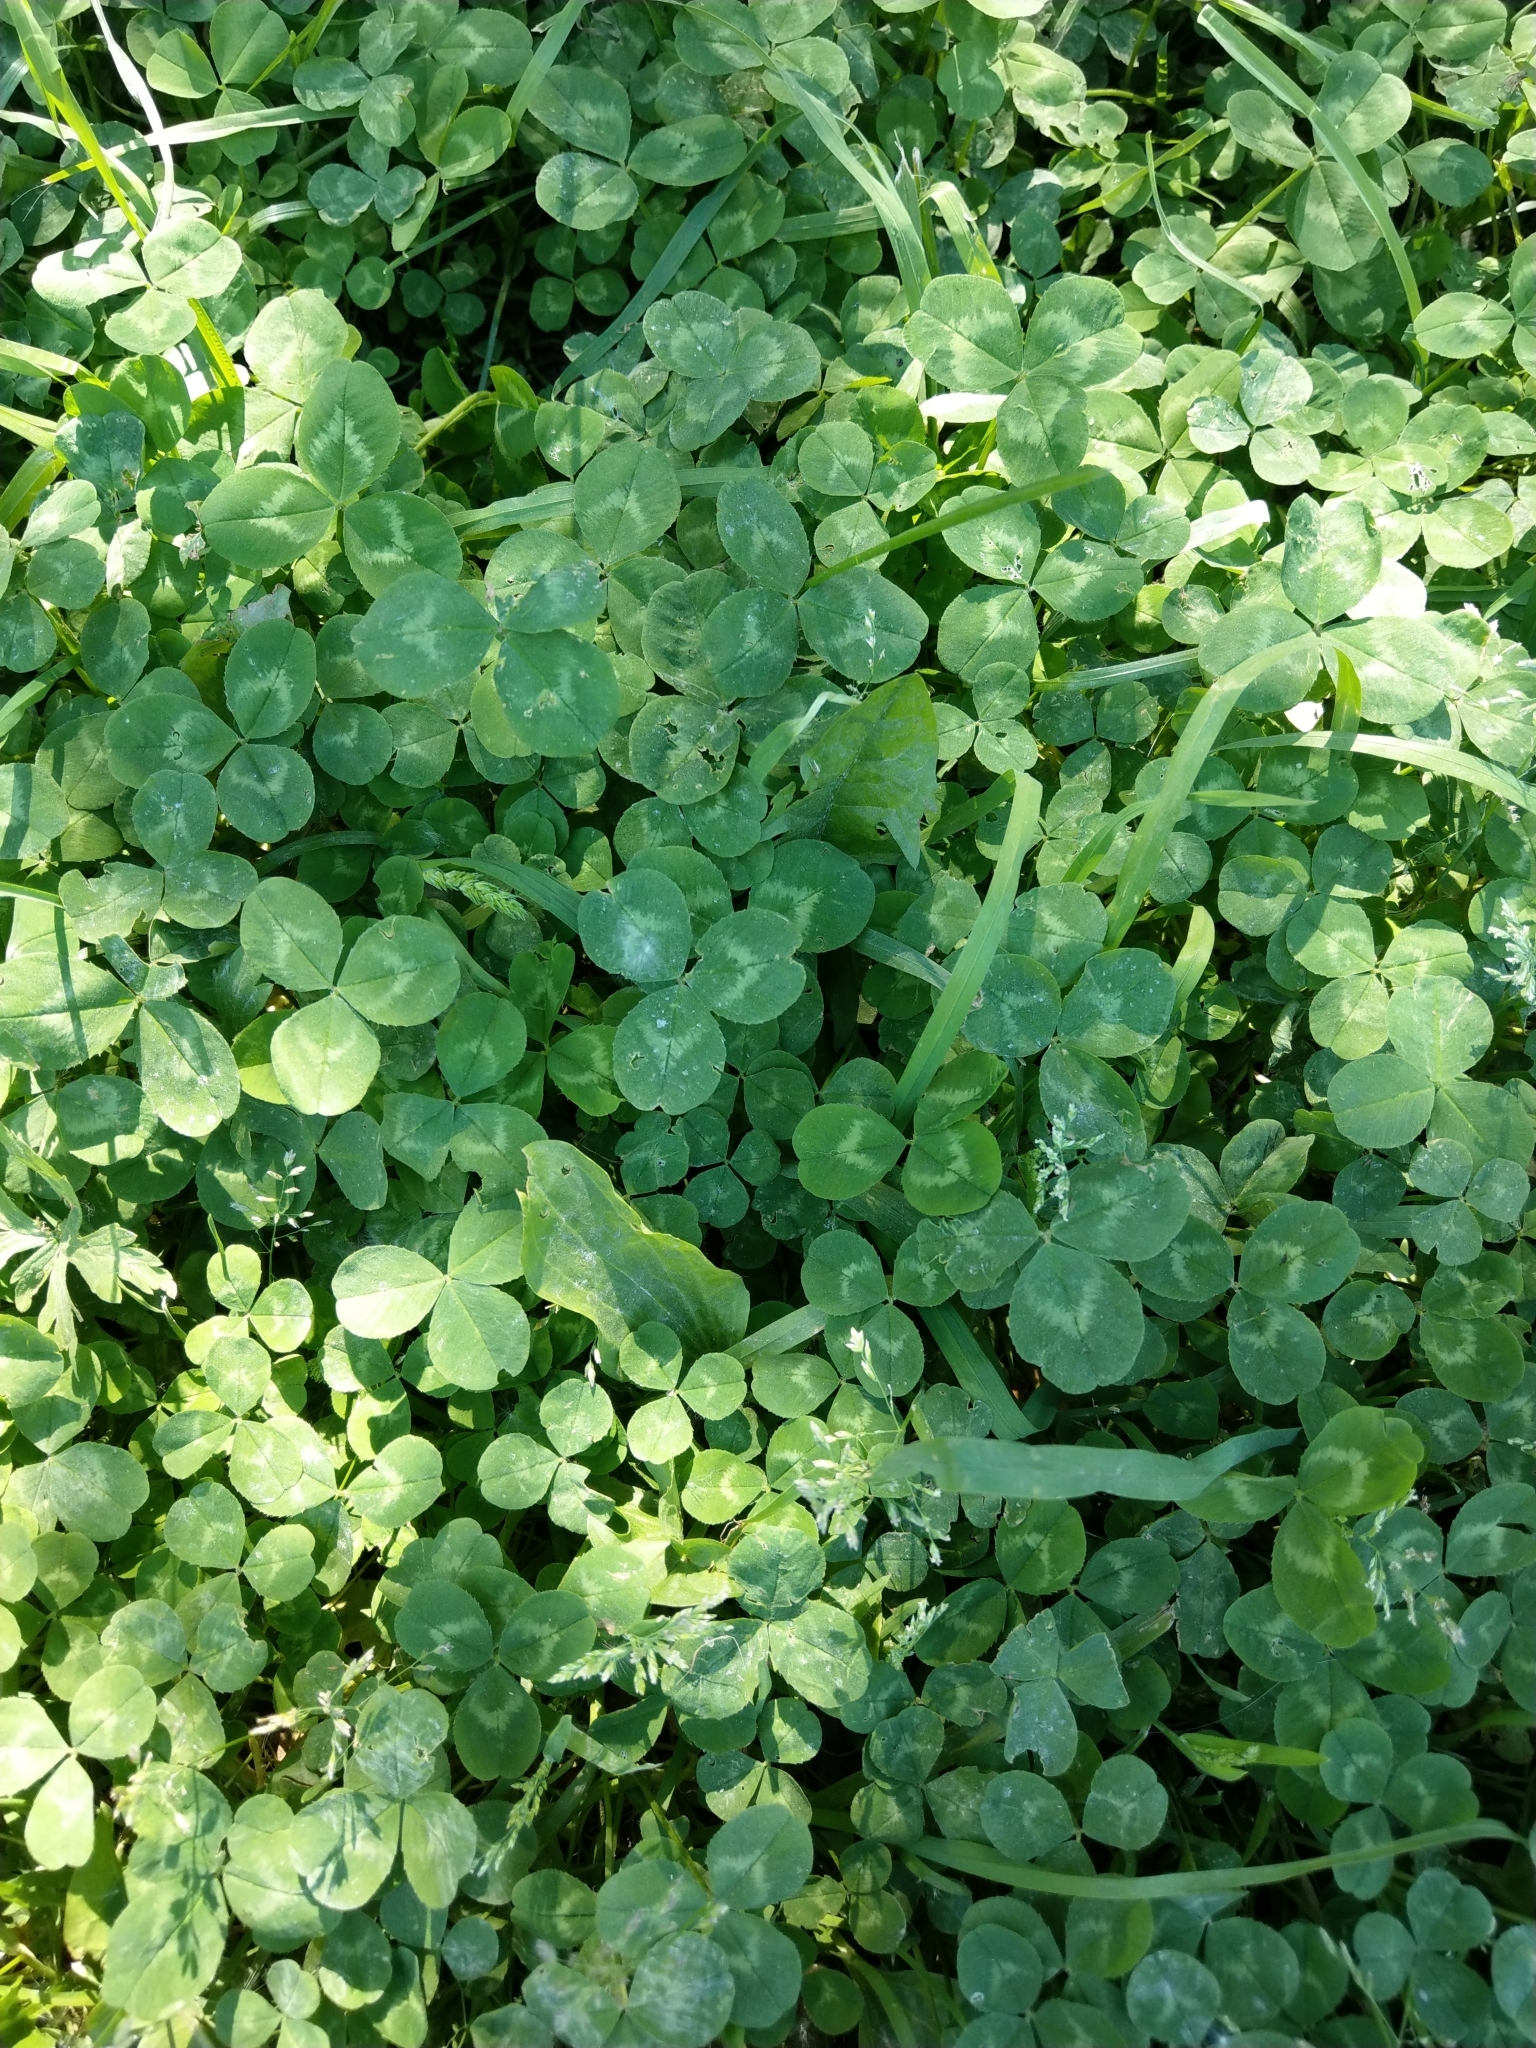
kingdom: Plantae
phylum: Tracheophyta
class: Magnoliopsida
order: Fabales
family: Fabaceae
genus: Trifolium
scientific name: Trifolium repens
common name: White clover
